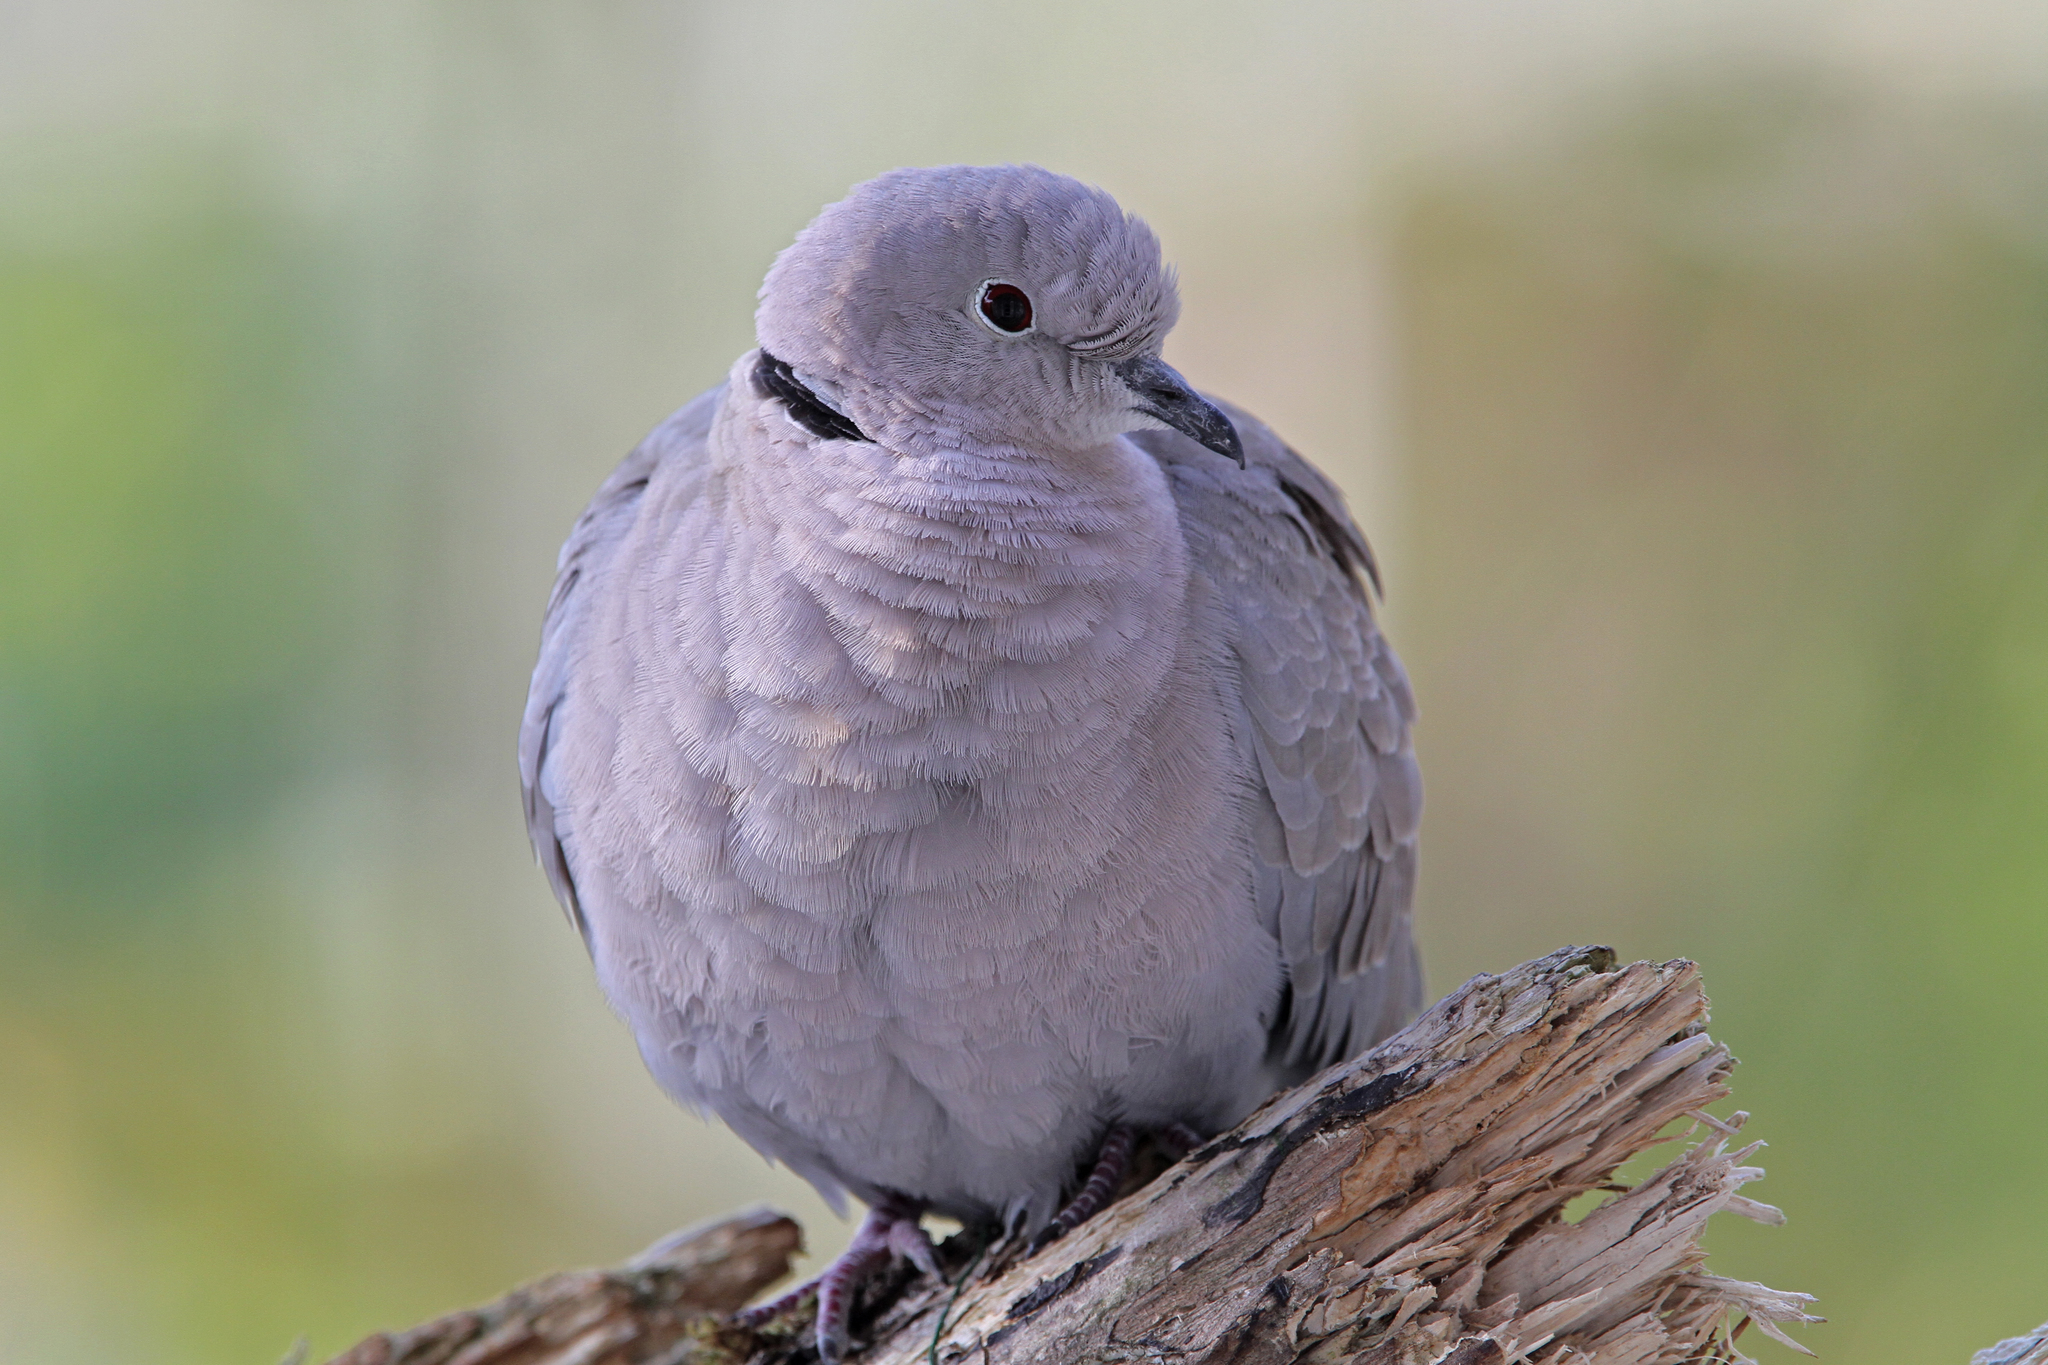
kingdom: Animalia
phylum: Chordata
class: Aves
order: Columbiformes
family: Columbidae
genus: Streptopelia
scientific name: Streptopelia decaocto
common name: Eurasian collared dove
